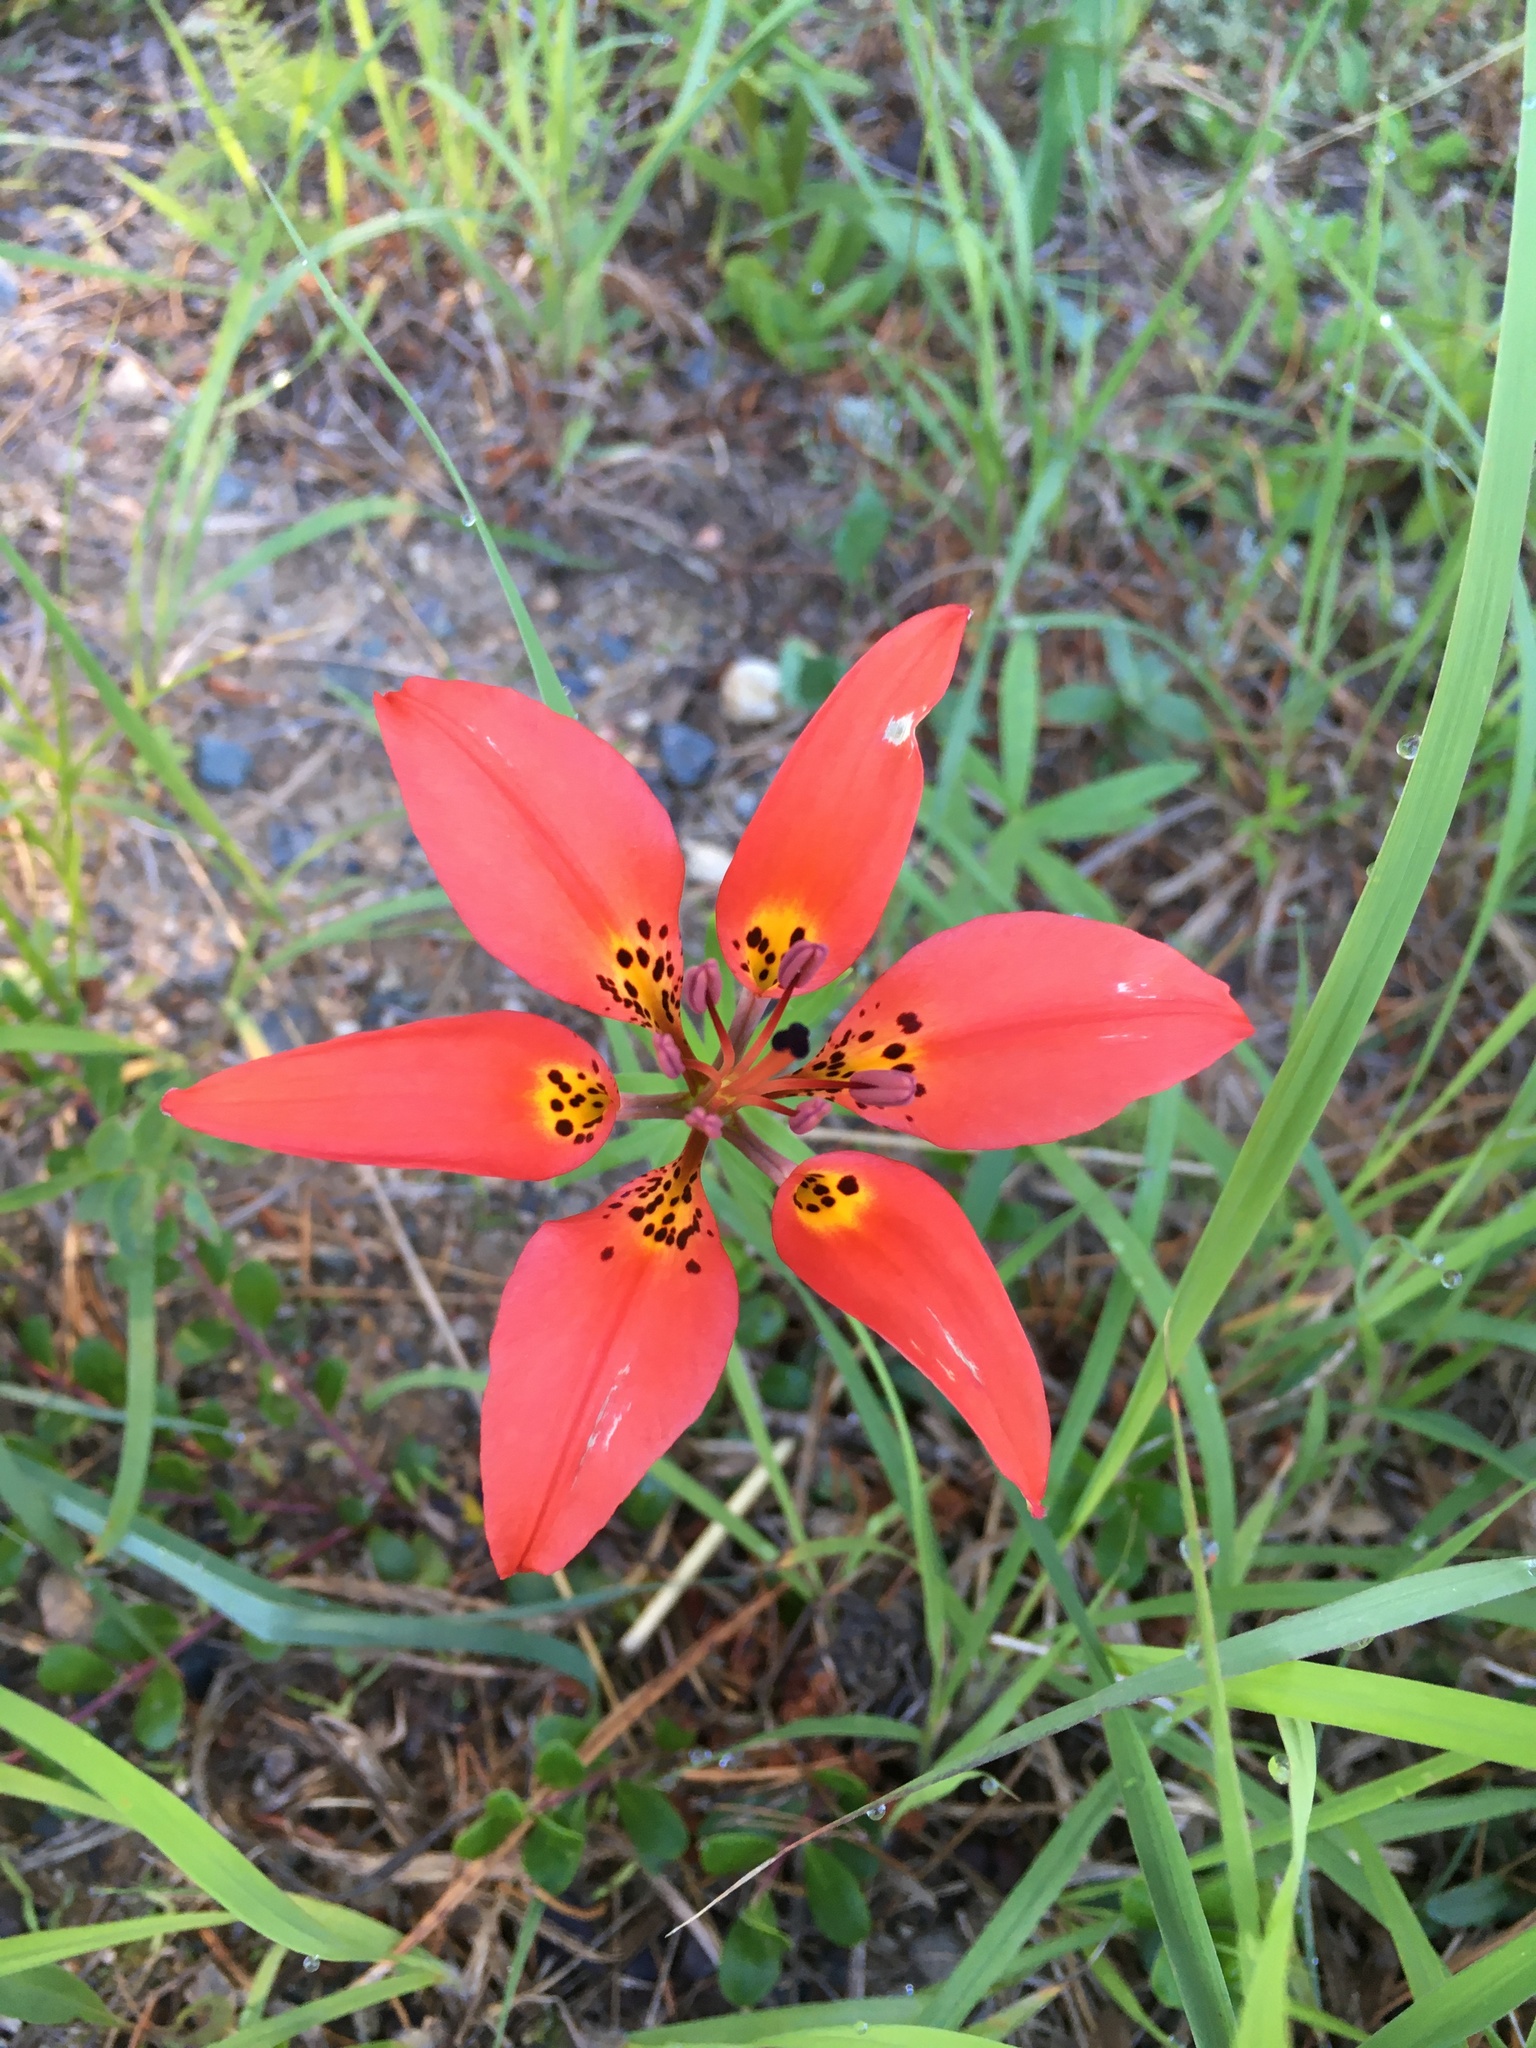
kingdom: Plantae
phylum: Tracheophyta
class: Liliopsida
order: Liliales
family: Liliaceae
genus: Lilium
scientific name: Lilium philadelphicum
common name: Red lily
